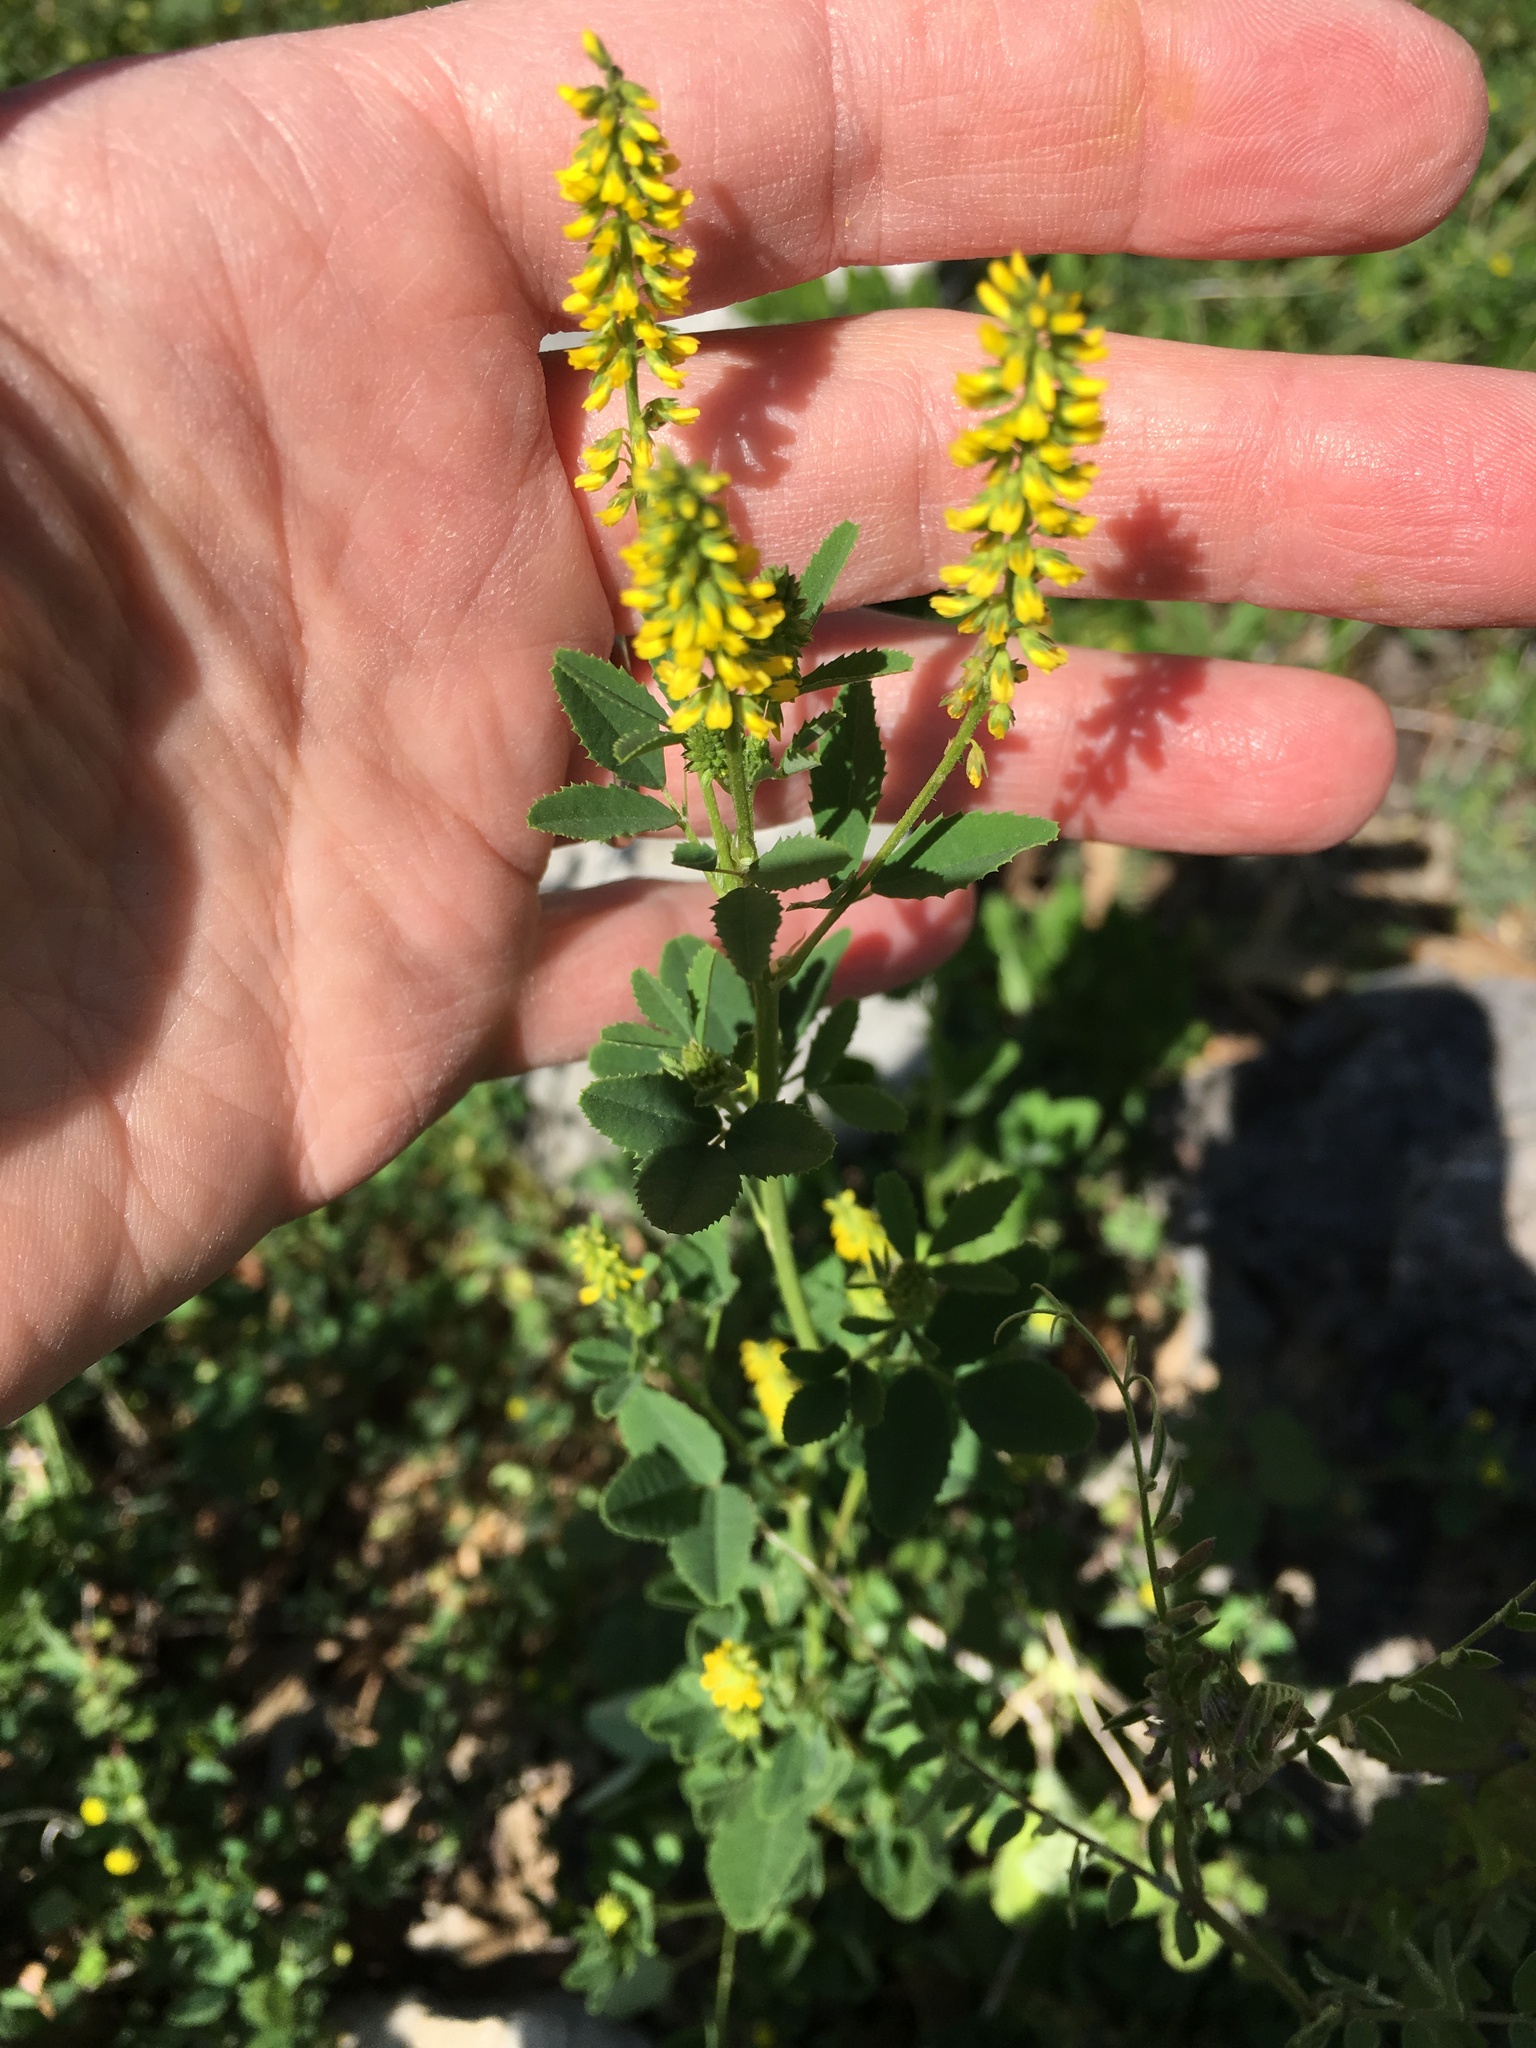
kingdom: Plantae
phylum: Tracheophyta
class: Magnoliopsida
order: Fabales
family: Fabaceae
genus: Melilotus
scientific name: Melilotus indicus
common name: Small melilot
